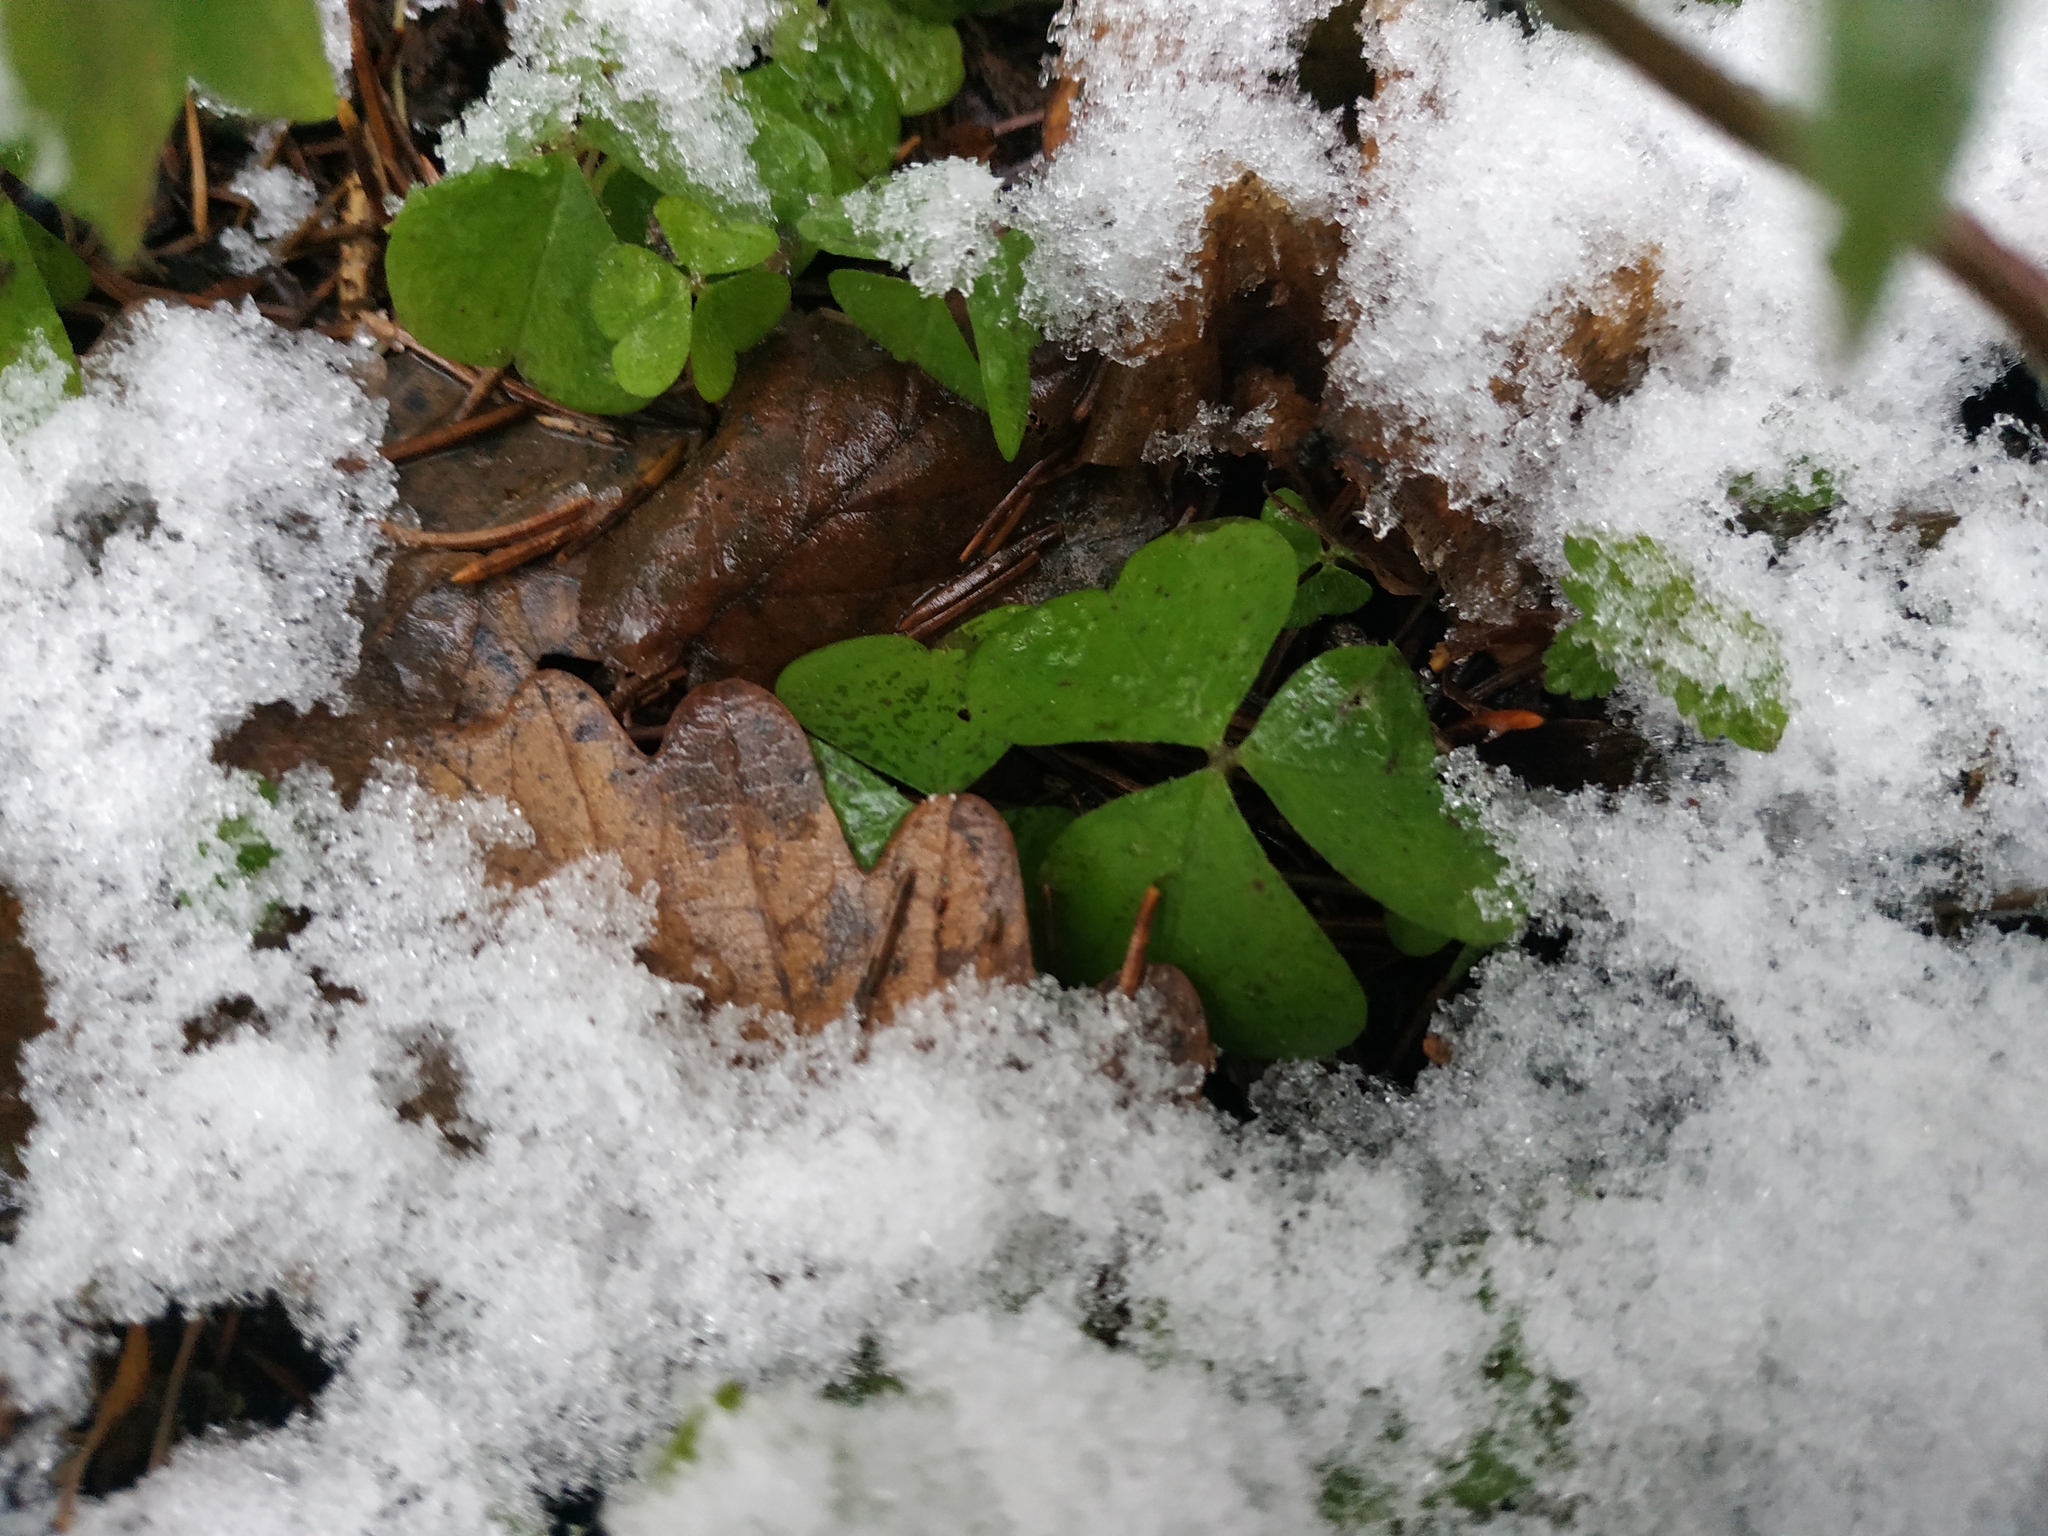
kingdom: Plantae
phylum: Tracheophyta
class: Magnoliopsida
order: Oxalidales
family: Oxalidaceae
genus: Oxalis
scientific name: Oxalis acetosella
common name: Wood-sorrel
